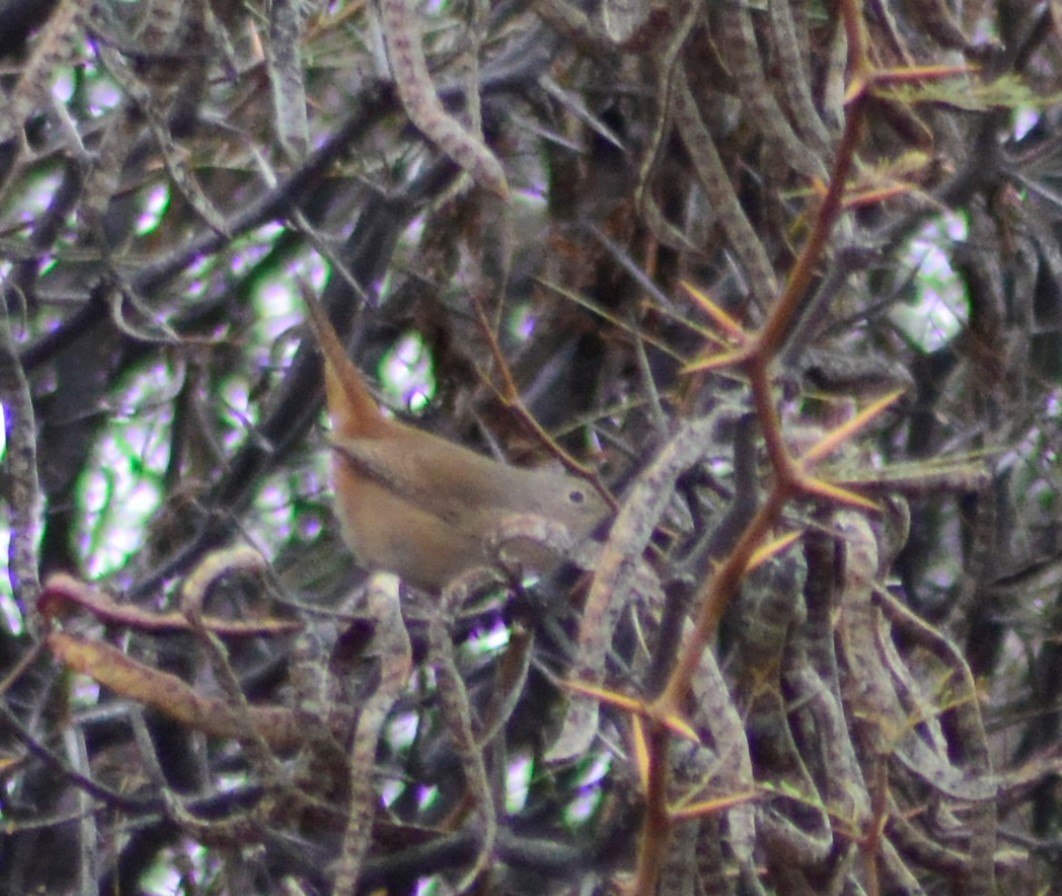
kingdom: Animalia
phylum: Chordata
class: Aves
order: Passeriformes
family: Troglodytidae
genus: Troglodytes
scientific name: Troglodytes aedon
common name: House wren
